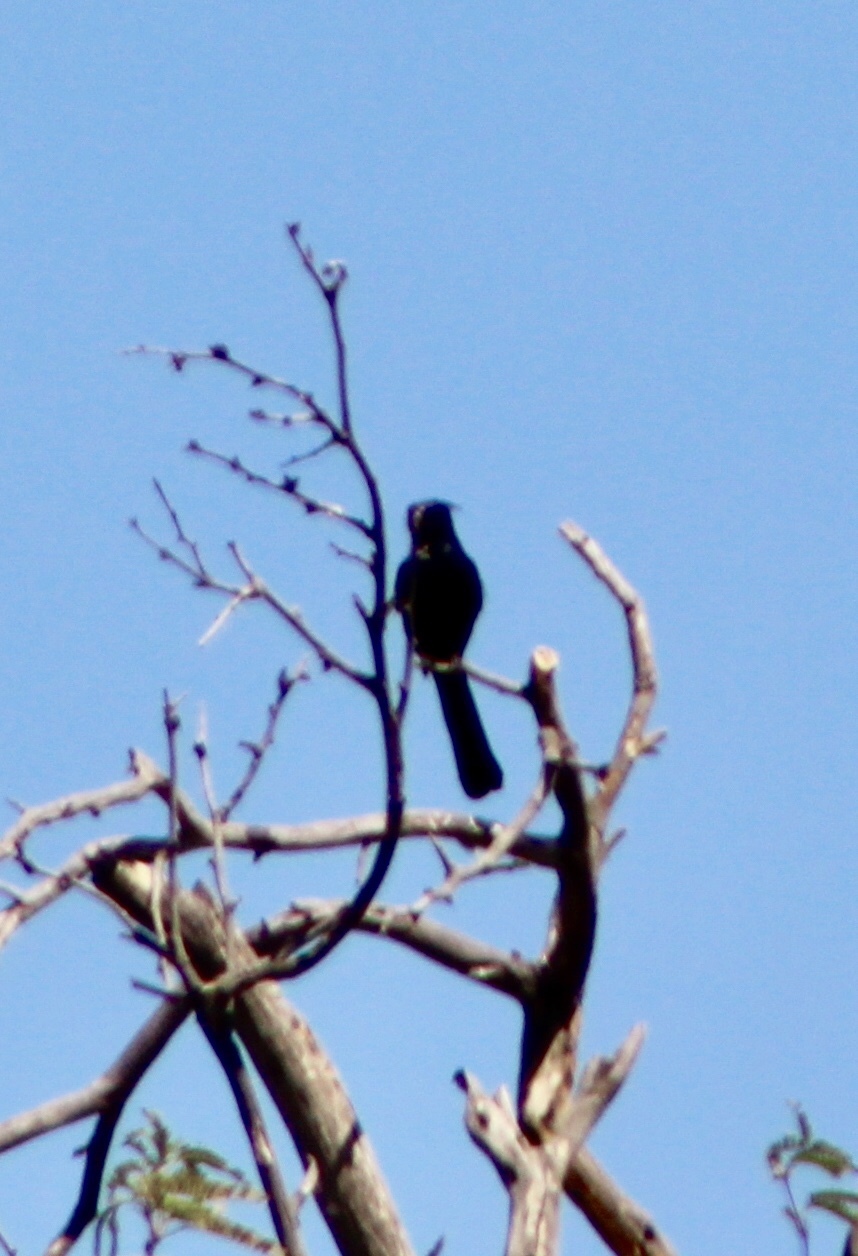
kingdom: Animalia
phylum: Chordata
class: Aves
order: Passeriformes
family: Ptilogonatidae
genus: Phainopepla
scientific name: Phainopepla nitens
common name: Phainopepla
